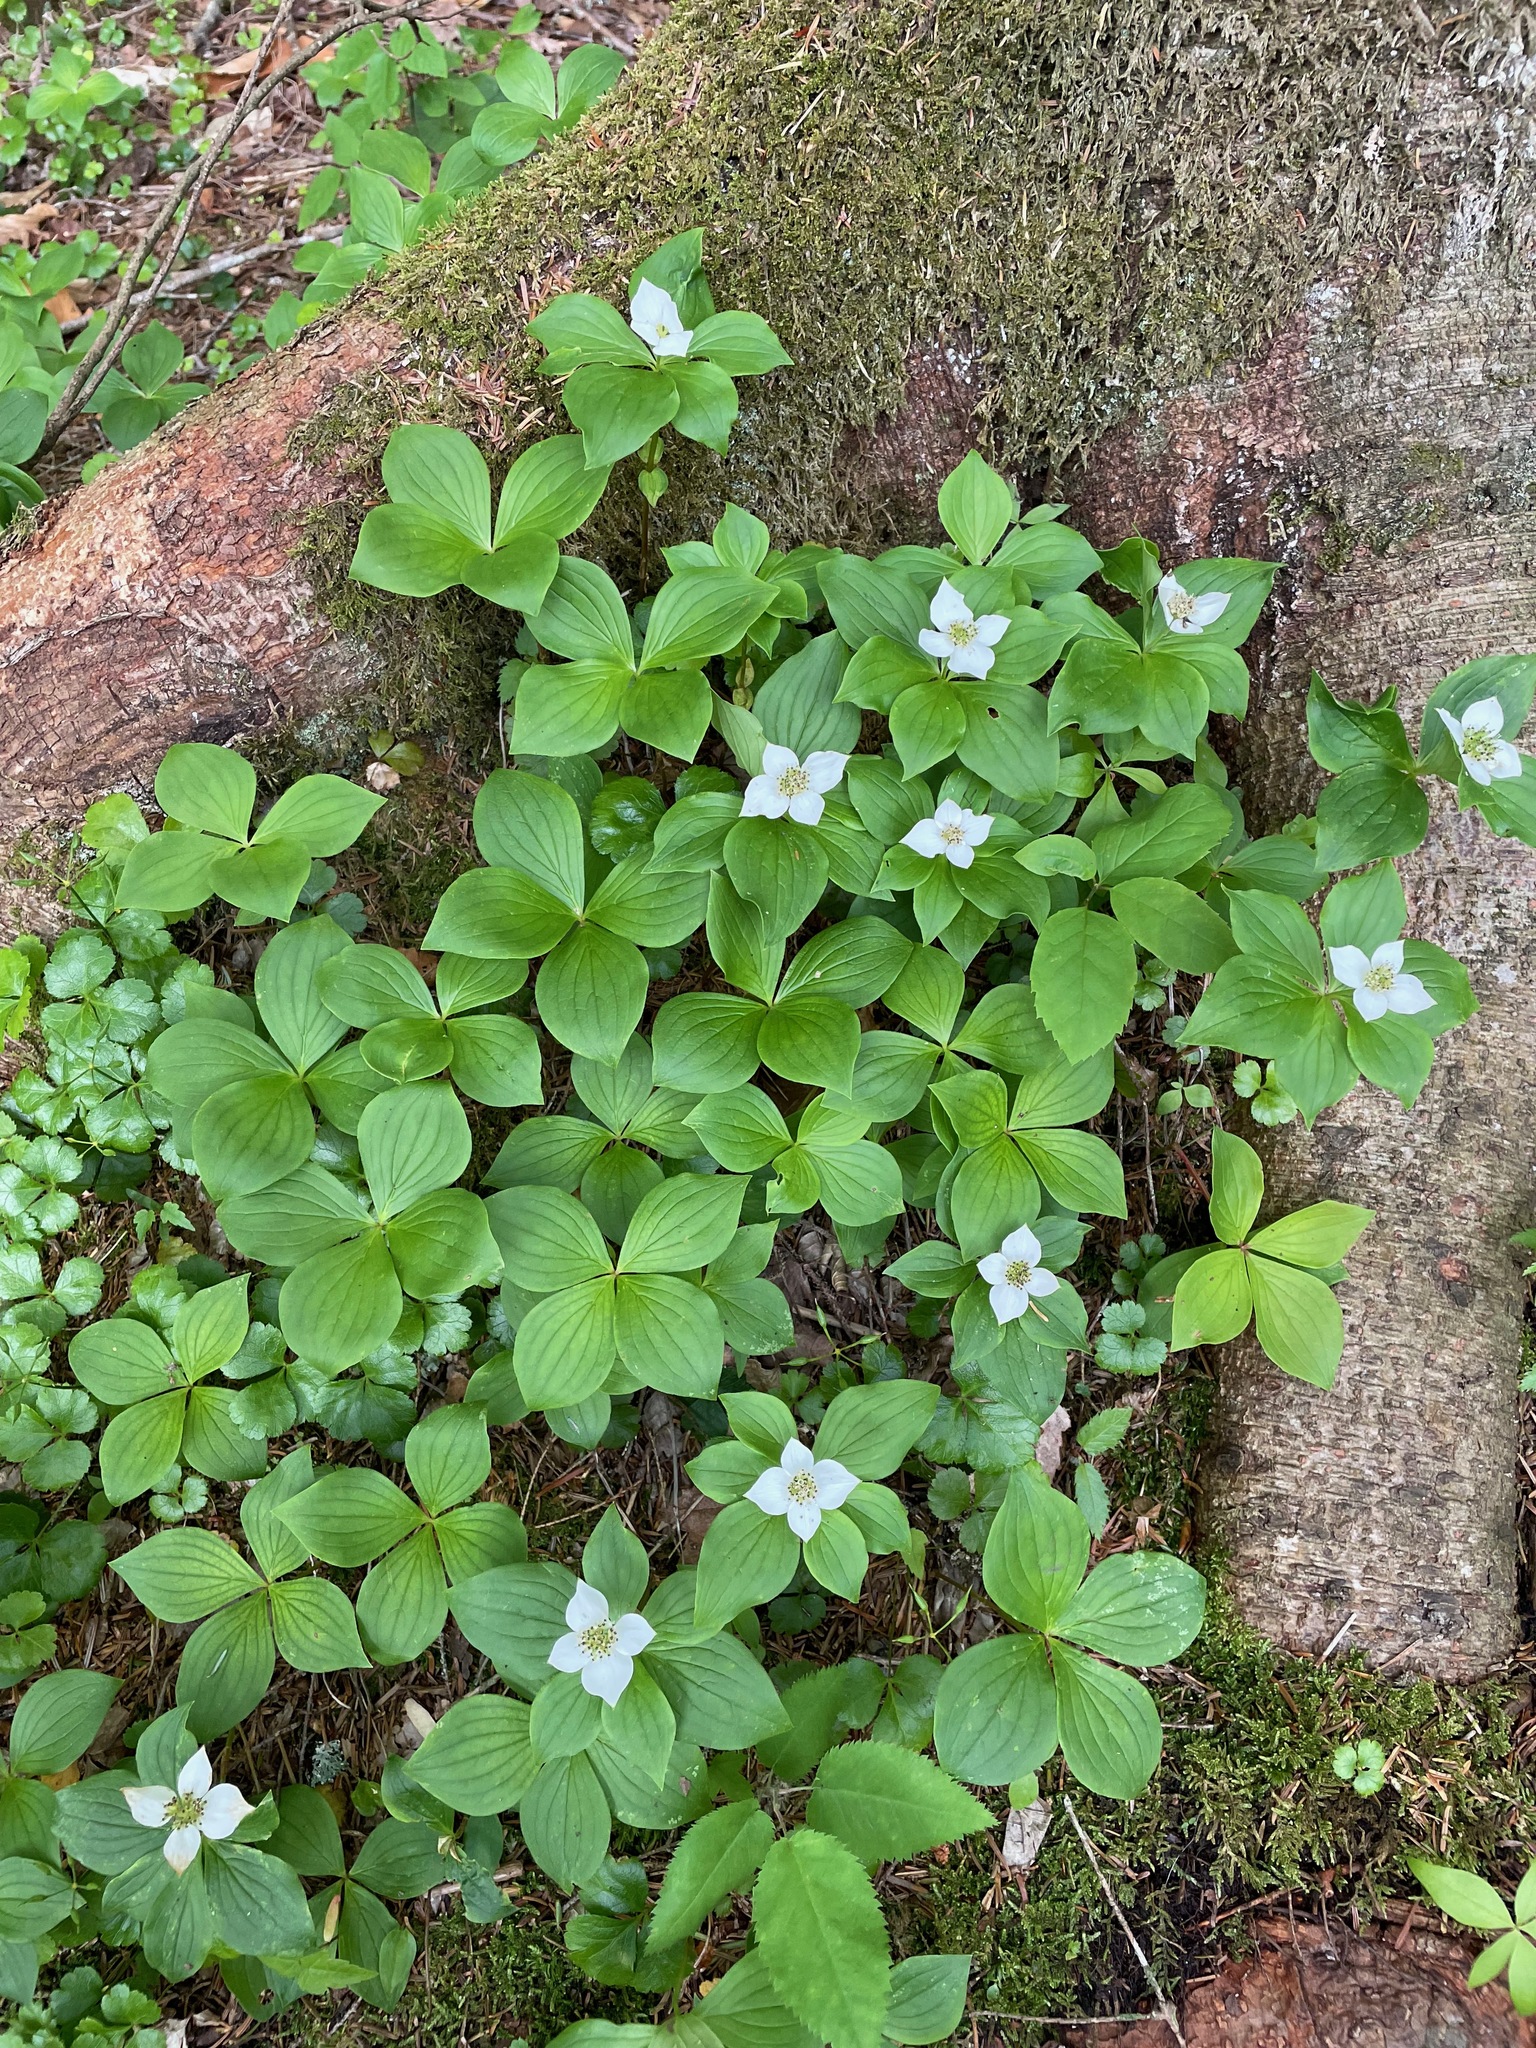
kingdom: Plantae
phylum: Tracheophyta
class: Magnoliopsida
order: Cornales
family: Cornaceae
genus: Cornus
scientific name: Cornus canadensis
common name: Creeping dogwood
